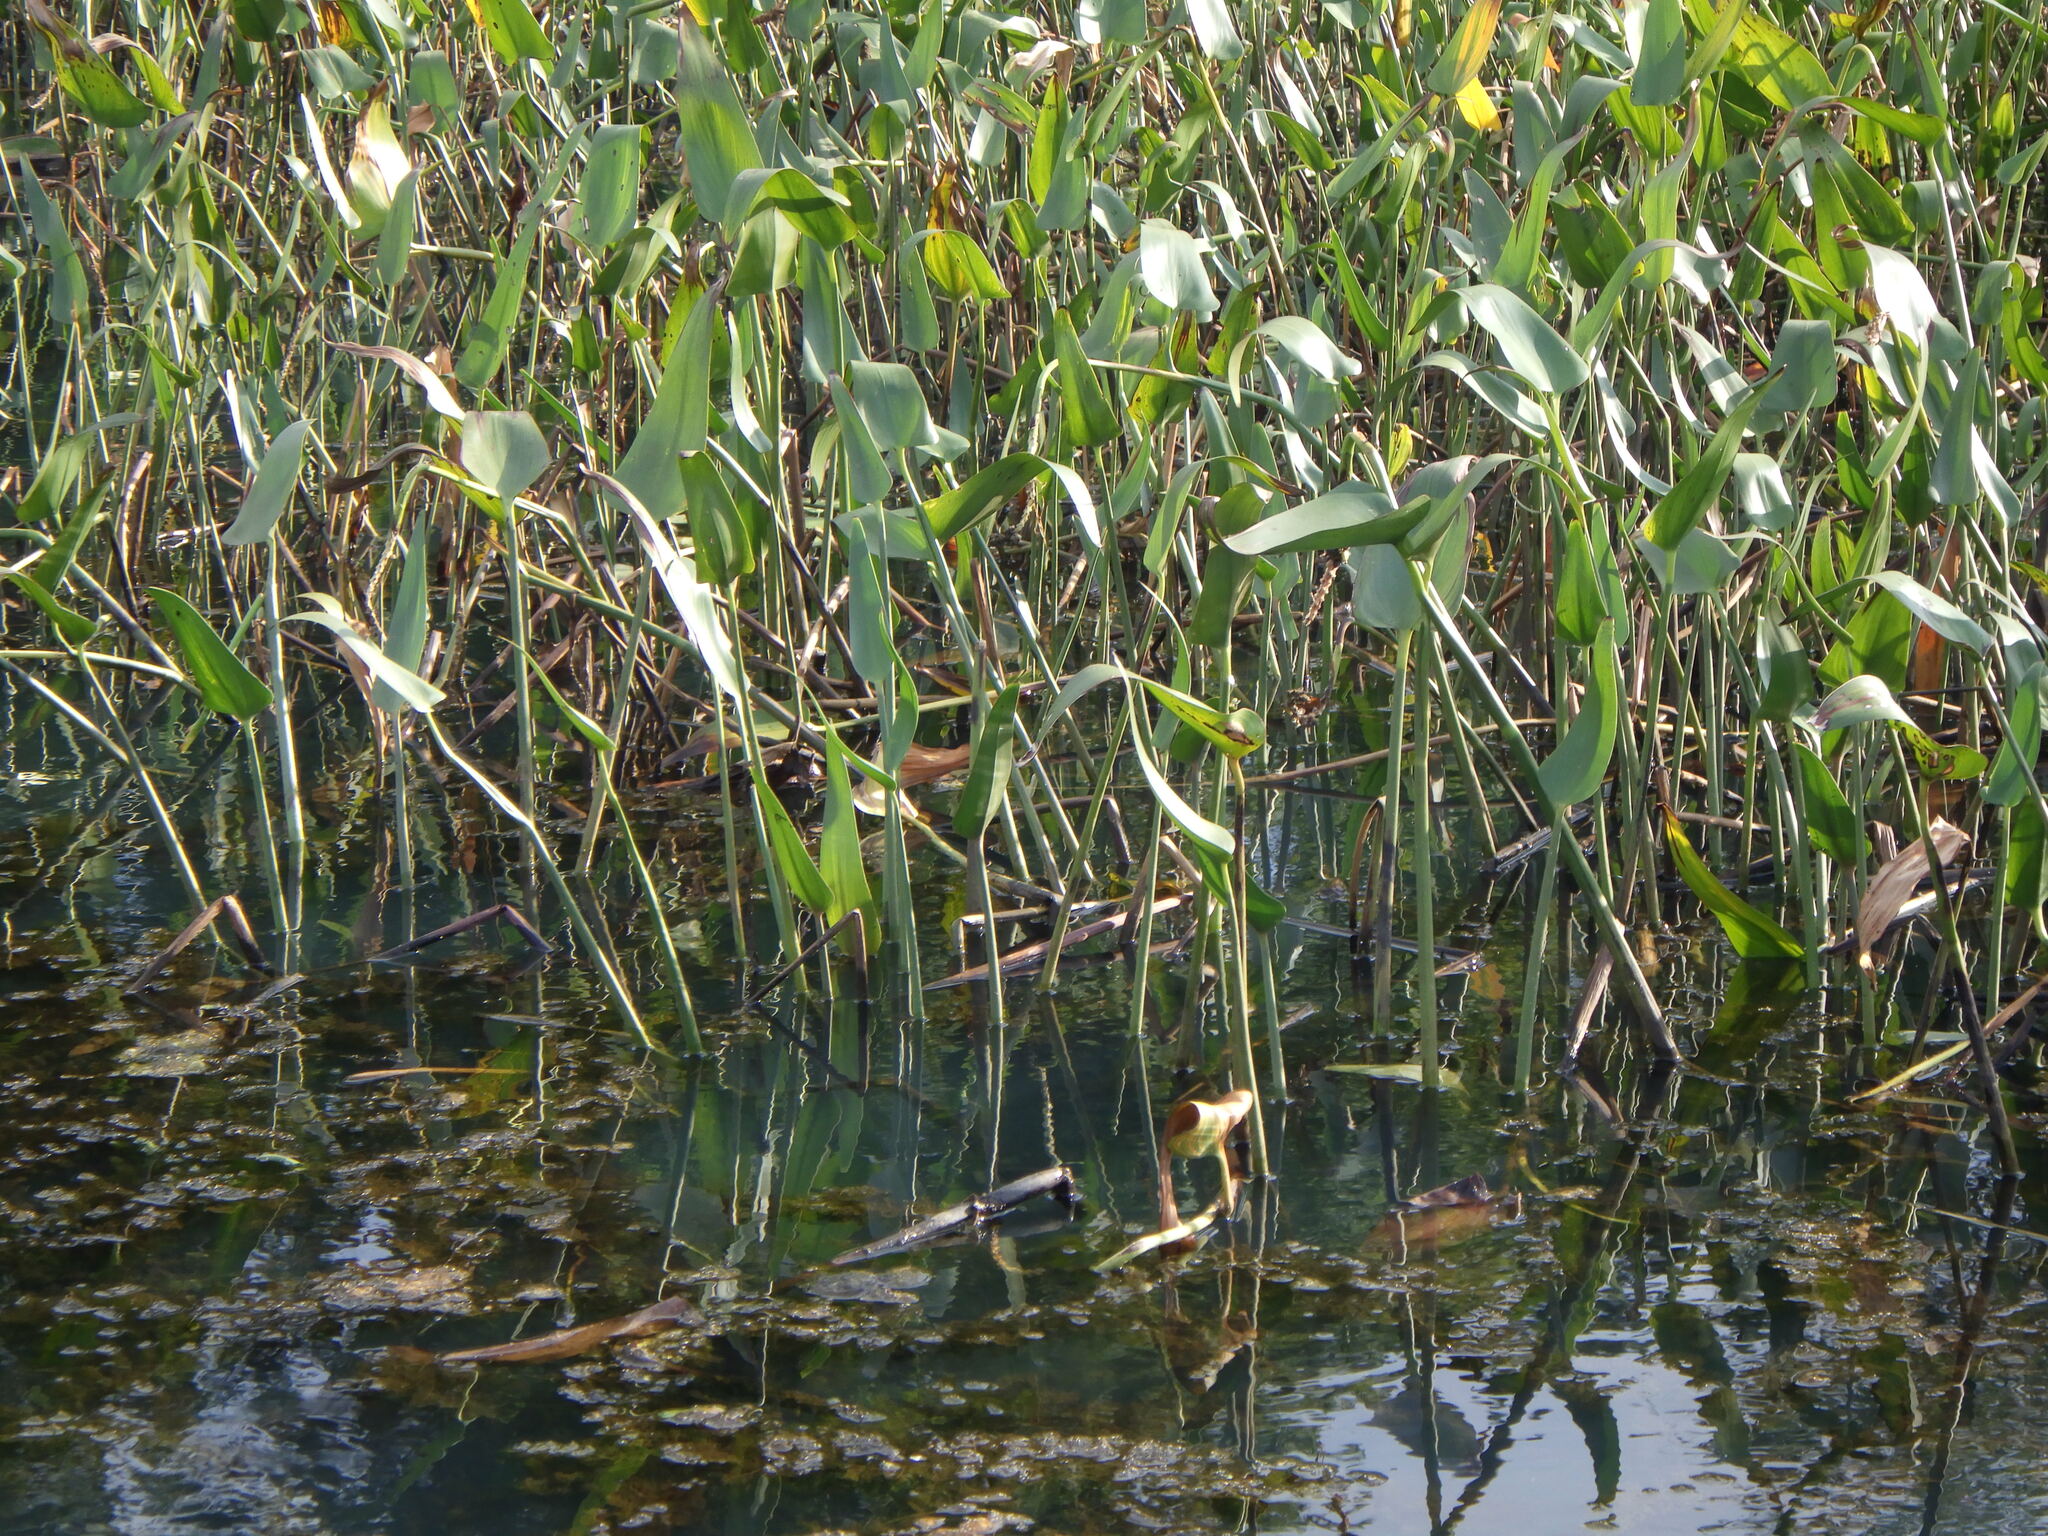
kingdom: Plantae
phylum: Tracheophyta
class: Liliopsida
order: Commelinales
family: Pontederiaceae
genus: Pontederia
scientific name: Pontederia cordata
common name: Pickerelweed
